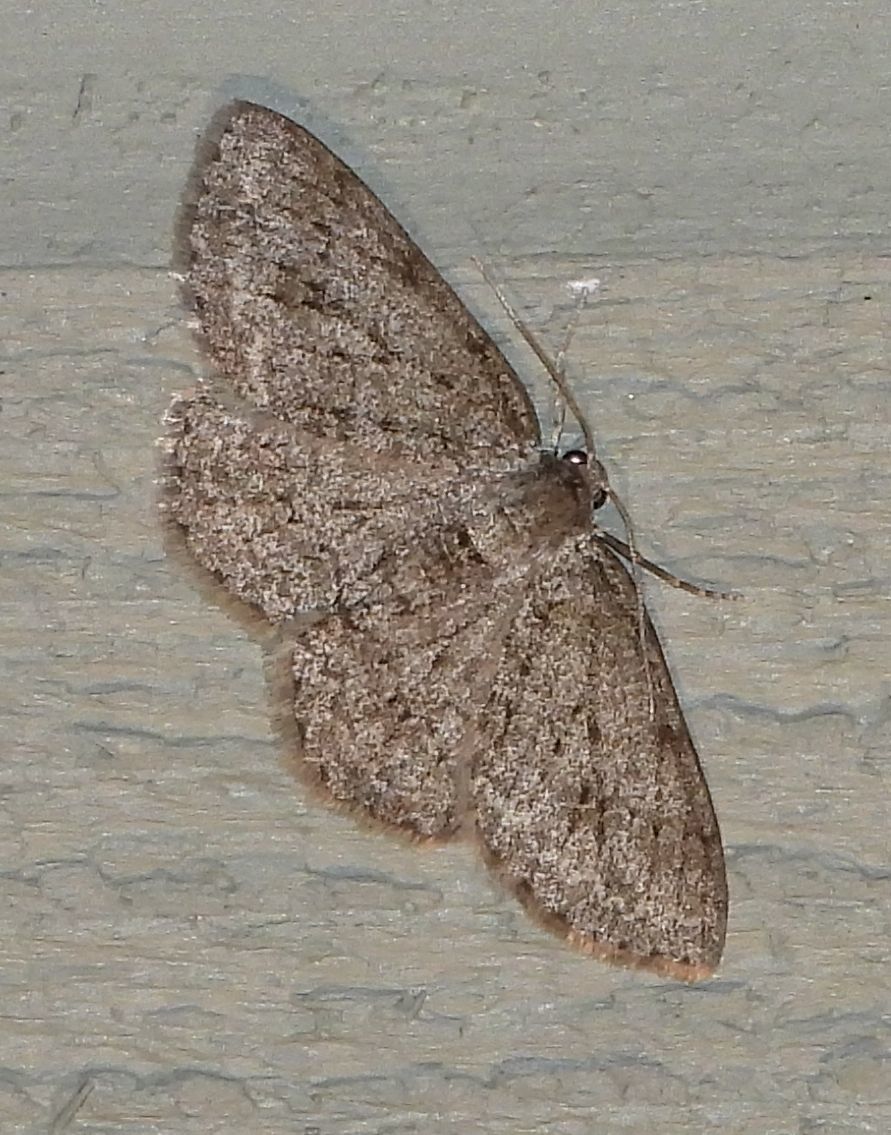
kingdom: Animalia
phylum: Arthropoda
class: Insecta
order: Lepidoptera
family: Geometridae
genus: Ectropis
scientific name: Ectropis crepuscularia
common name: Engrailed
